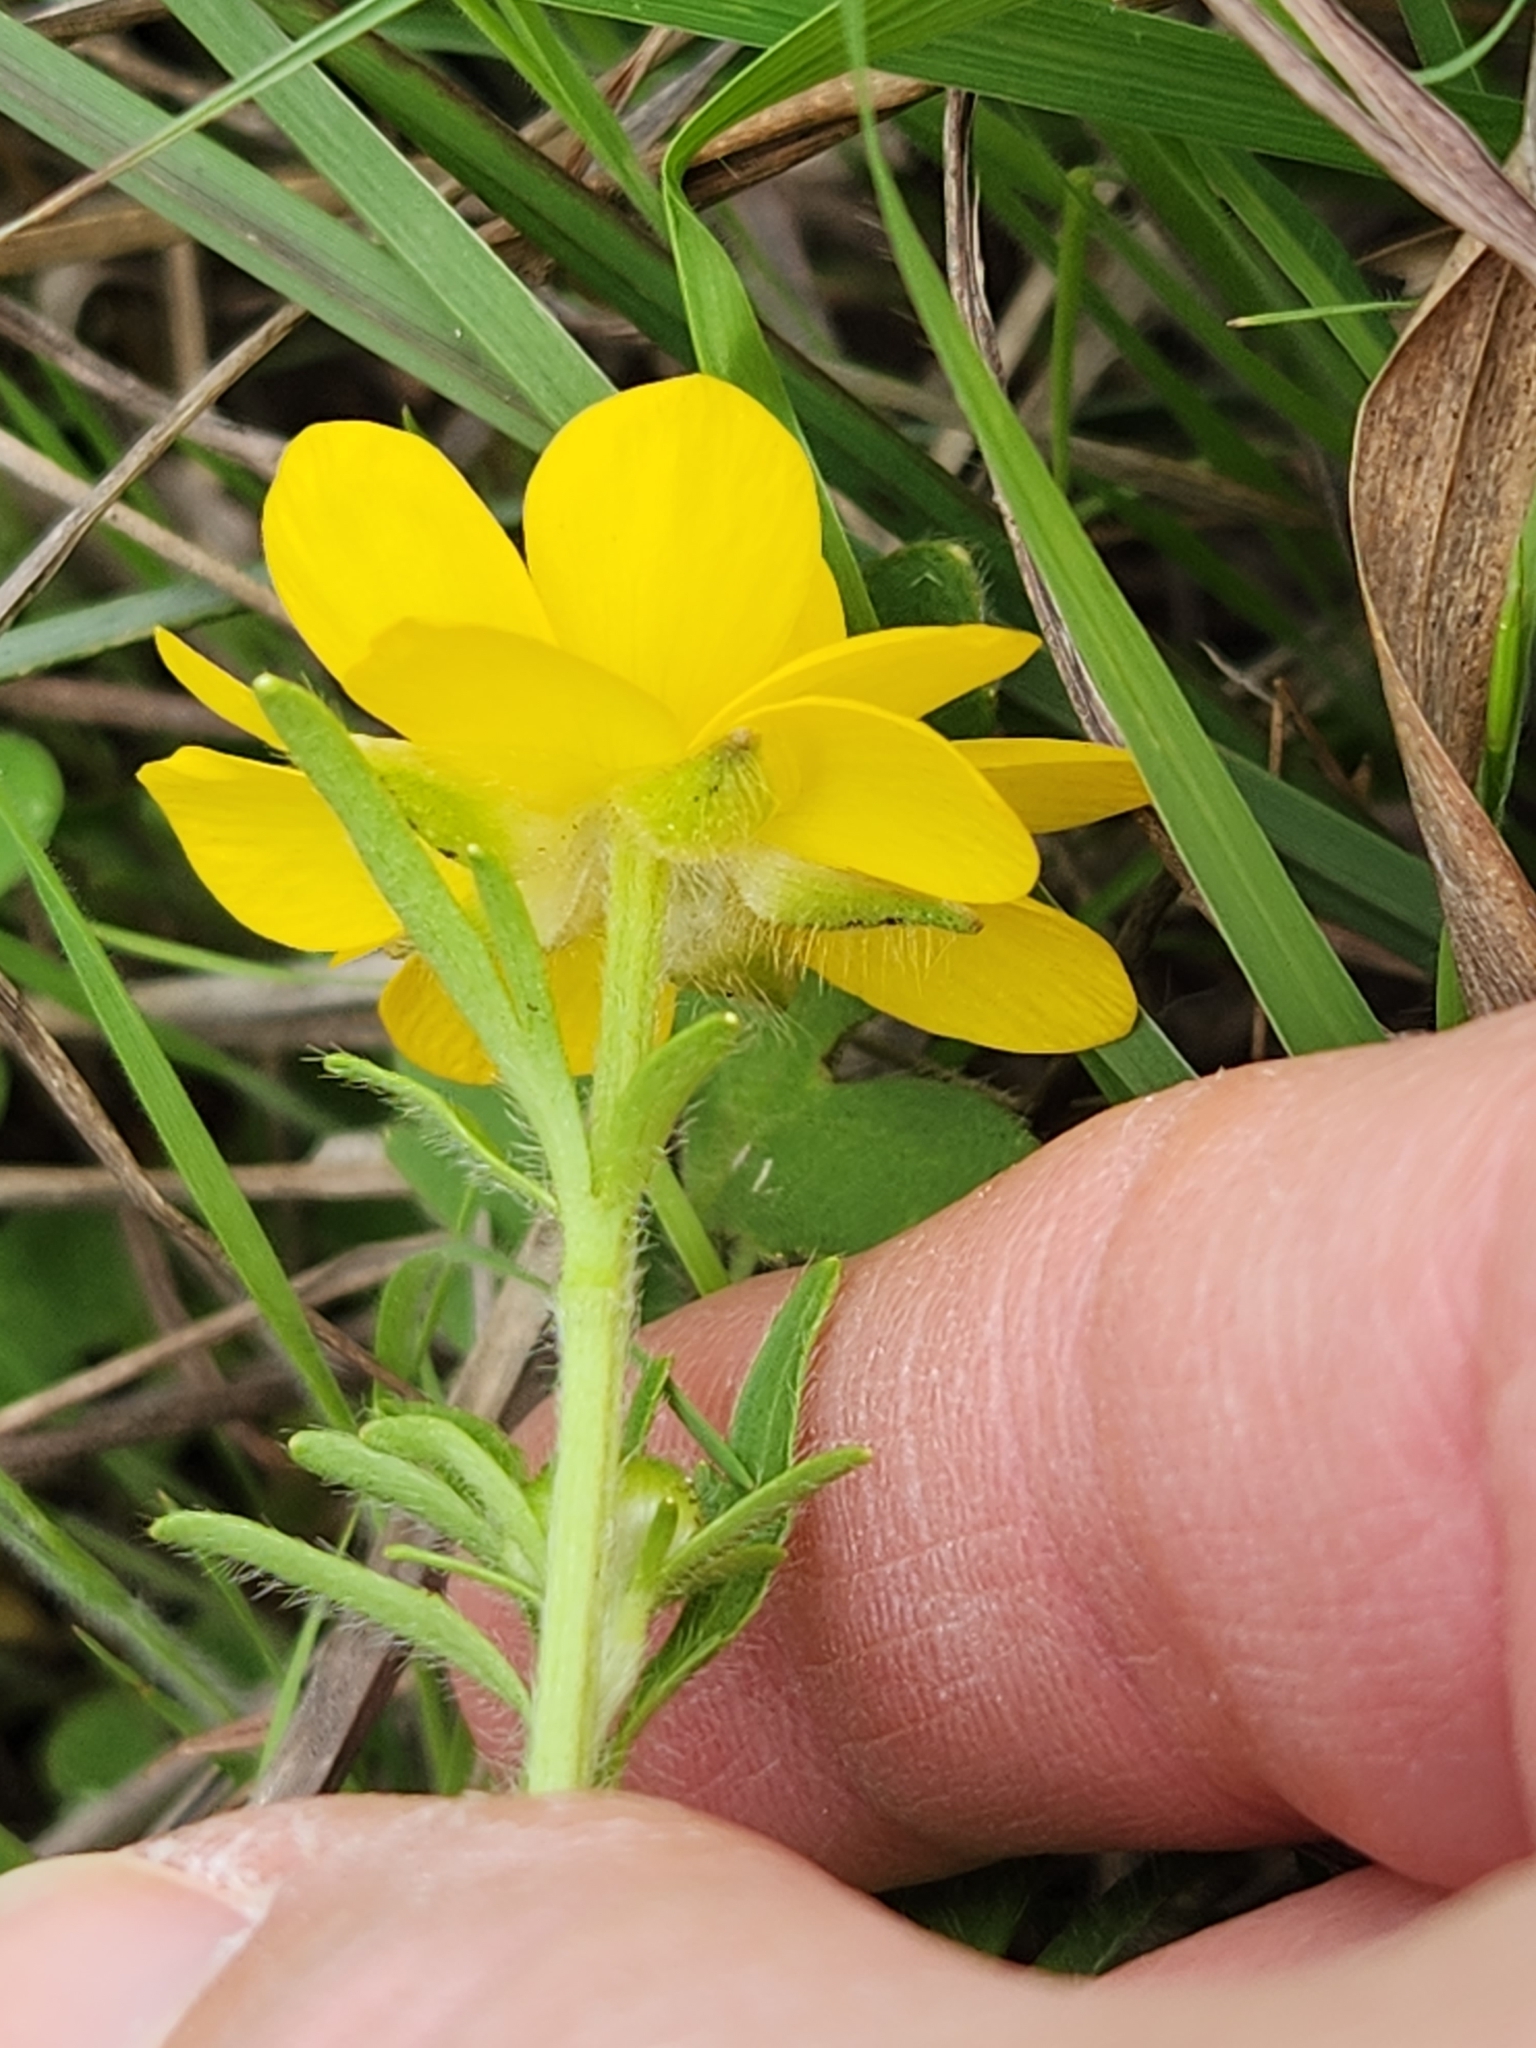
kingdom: Plantae
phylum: Tracheophyta
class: Magnoliopsida
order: Ranunculales
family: Ranunculaceae
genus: Ranunculus
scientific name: Ranunculus macranthus
